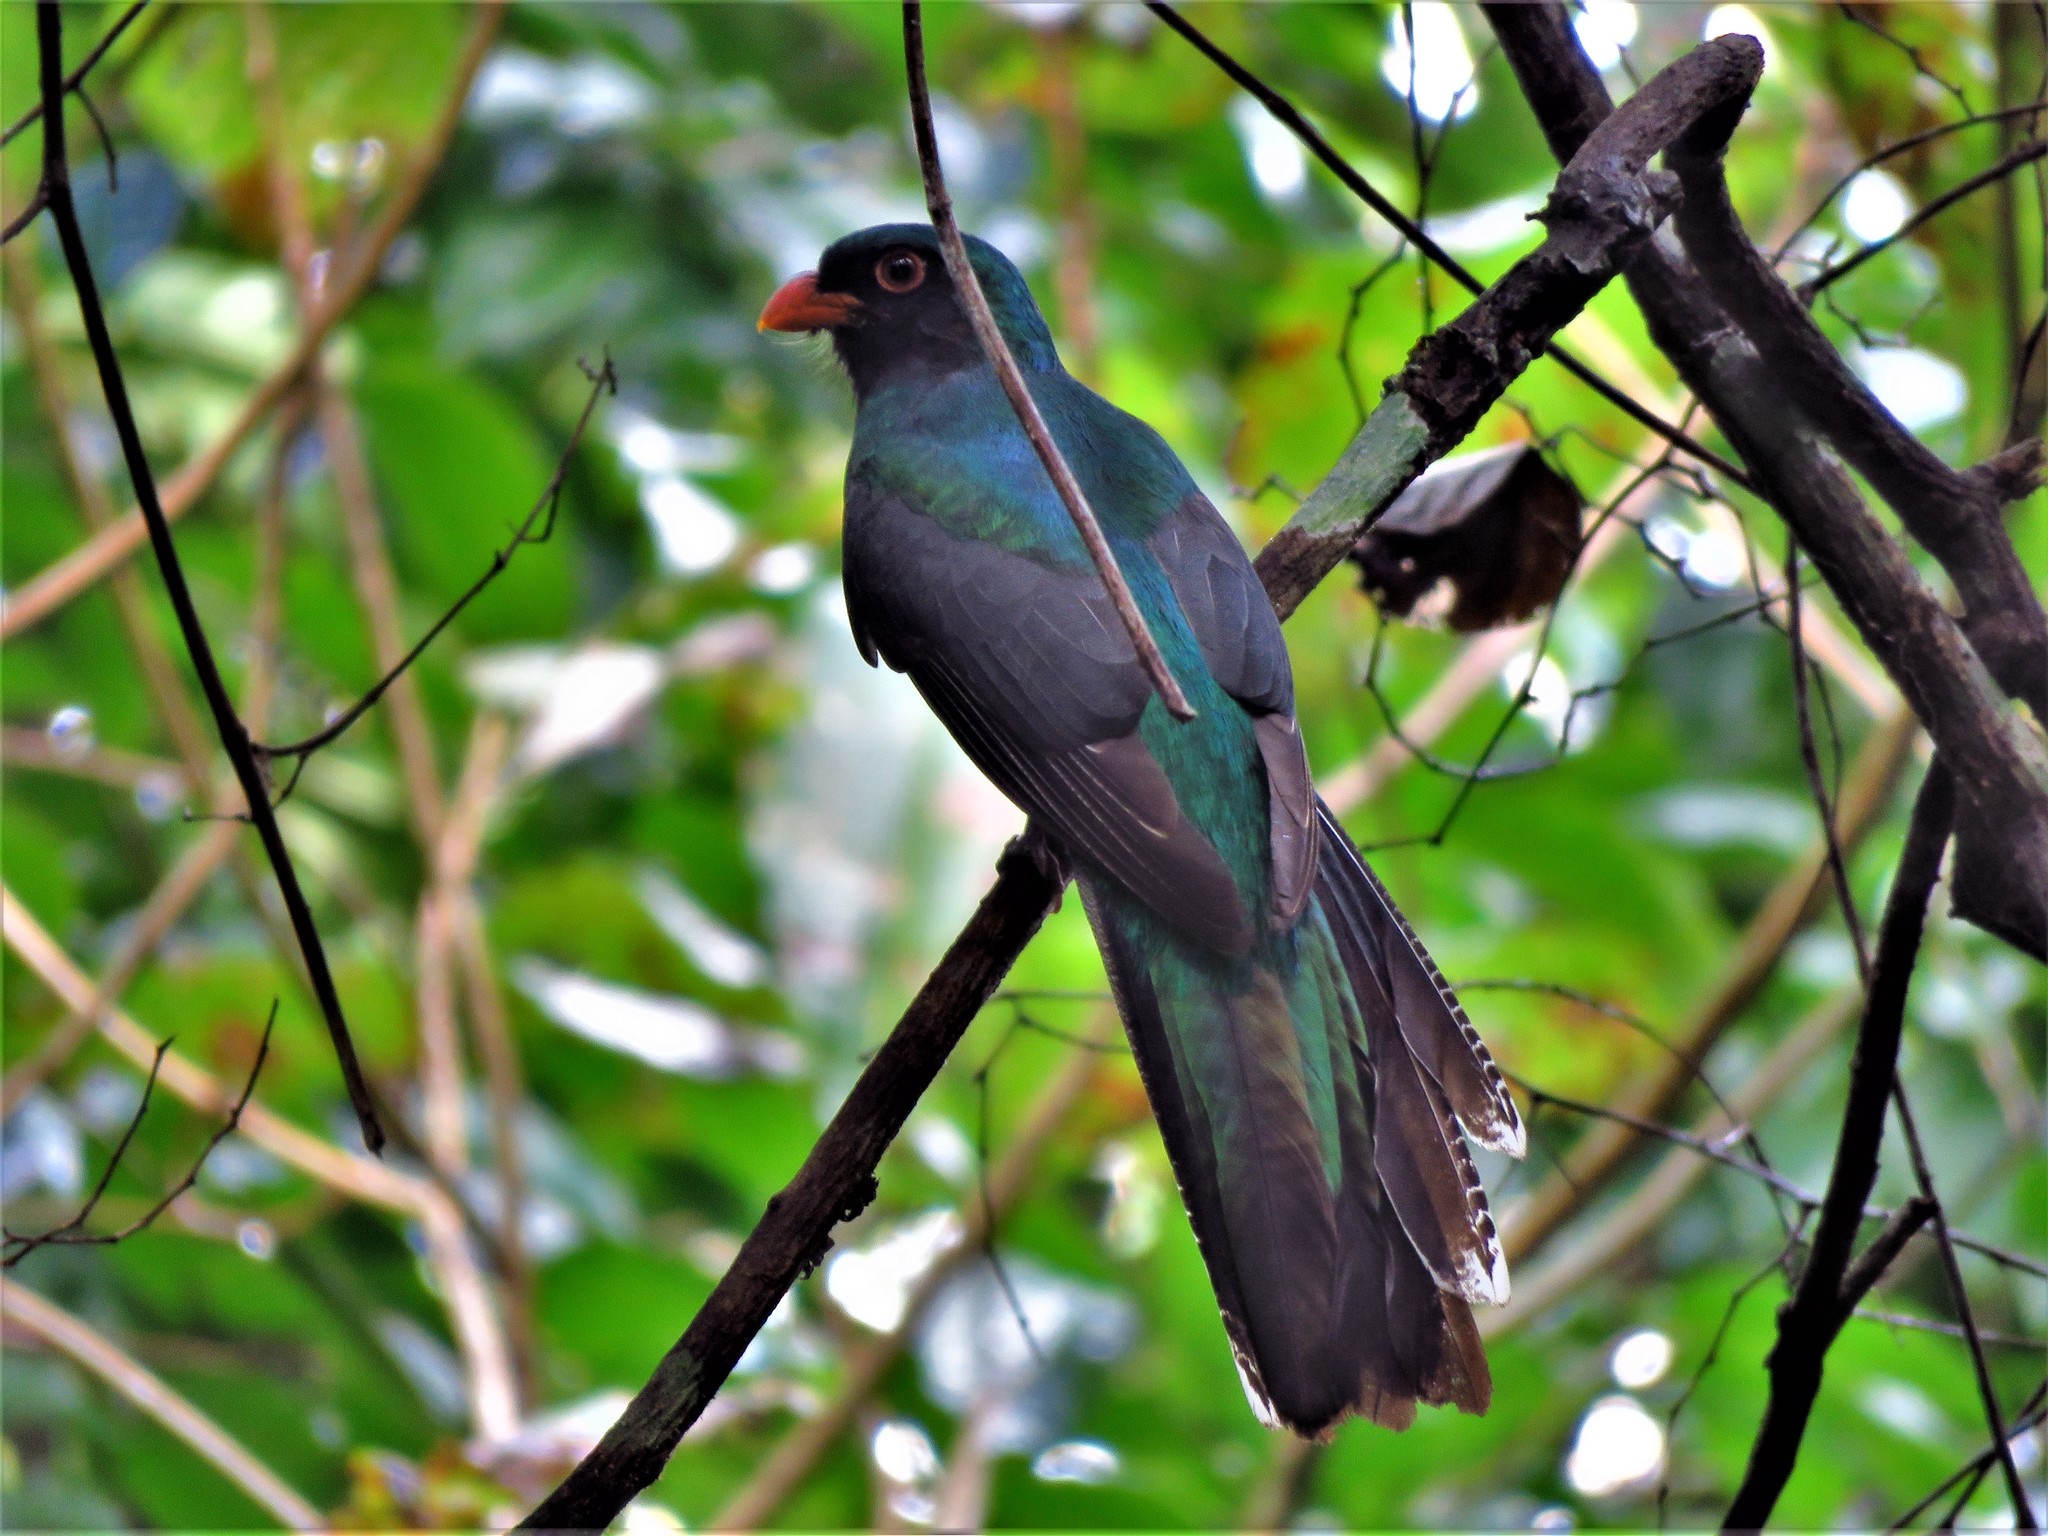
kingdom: Animalia
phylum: Chordata
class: Aves
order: Trogoniformes
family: Trogonidae
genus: Trogon
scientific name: Trogon massena
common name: Slaty-tailed trogon
